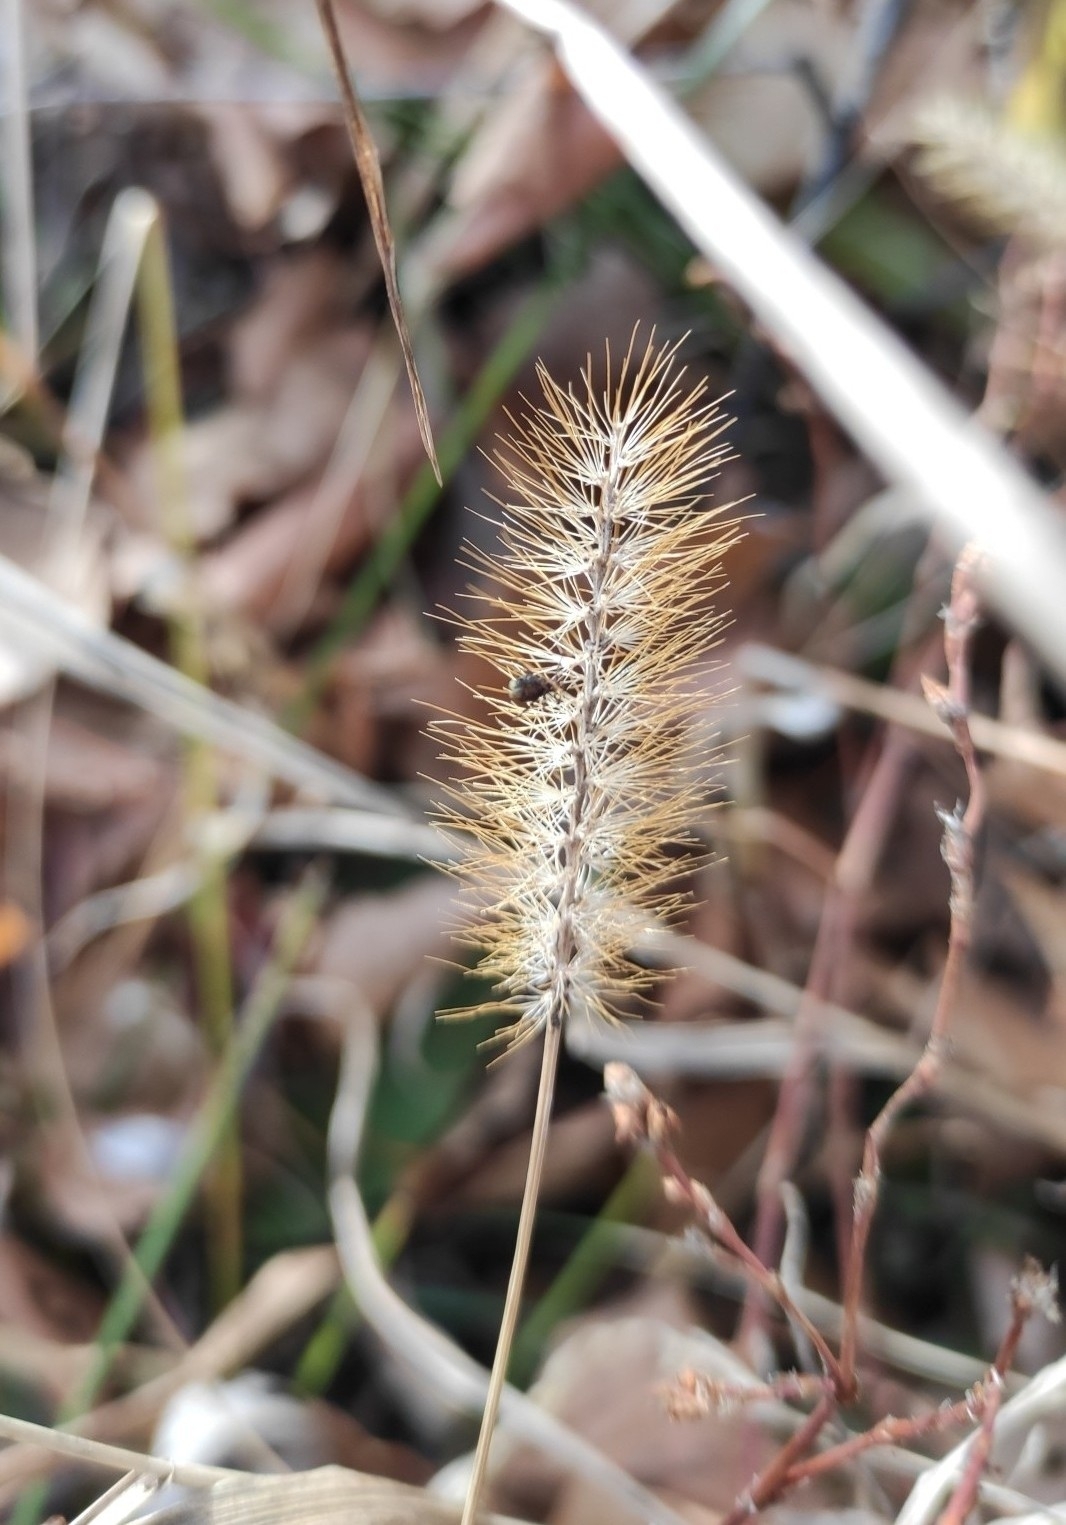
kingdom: Plantae
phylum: Tracheophyta
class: Liliopsida
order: Poales
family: Poaceae
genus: Setaria
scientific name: Setaria pumila
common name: Yellow bristle-grass
